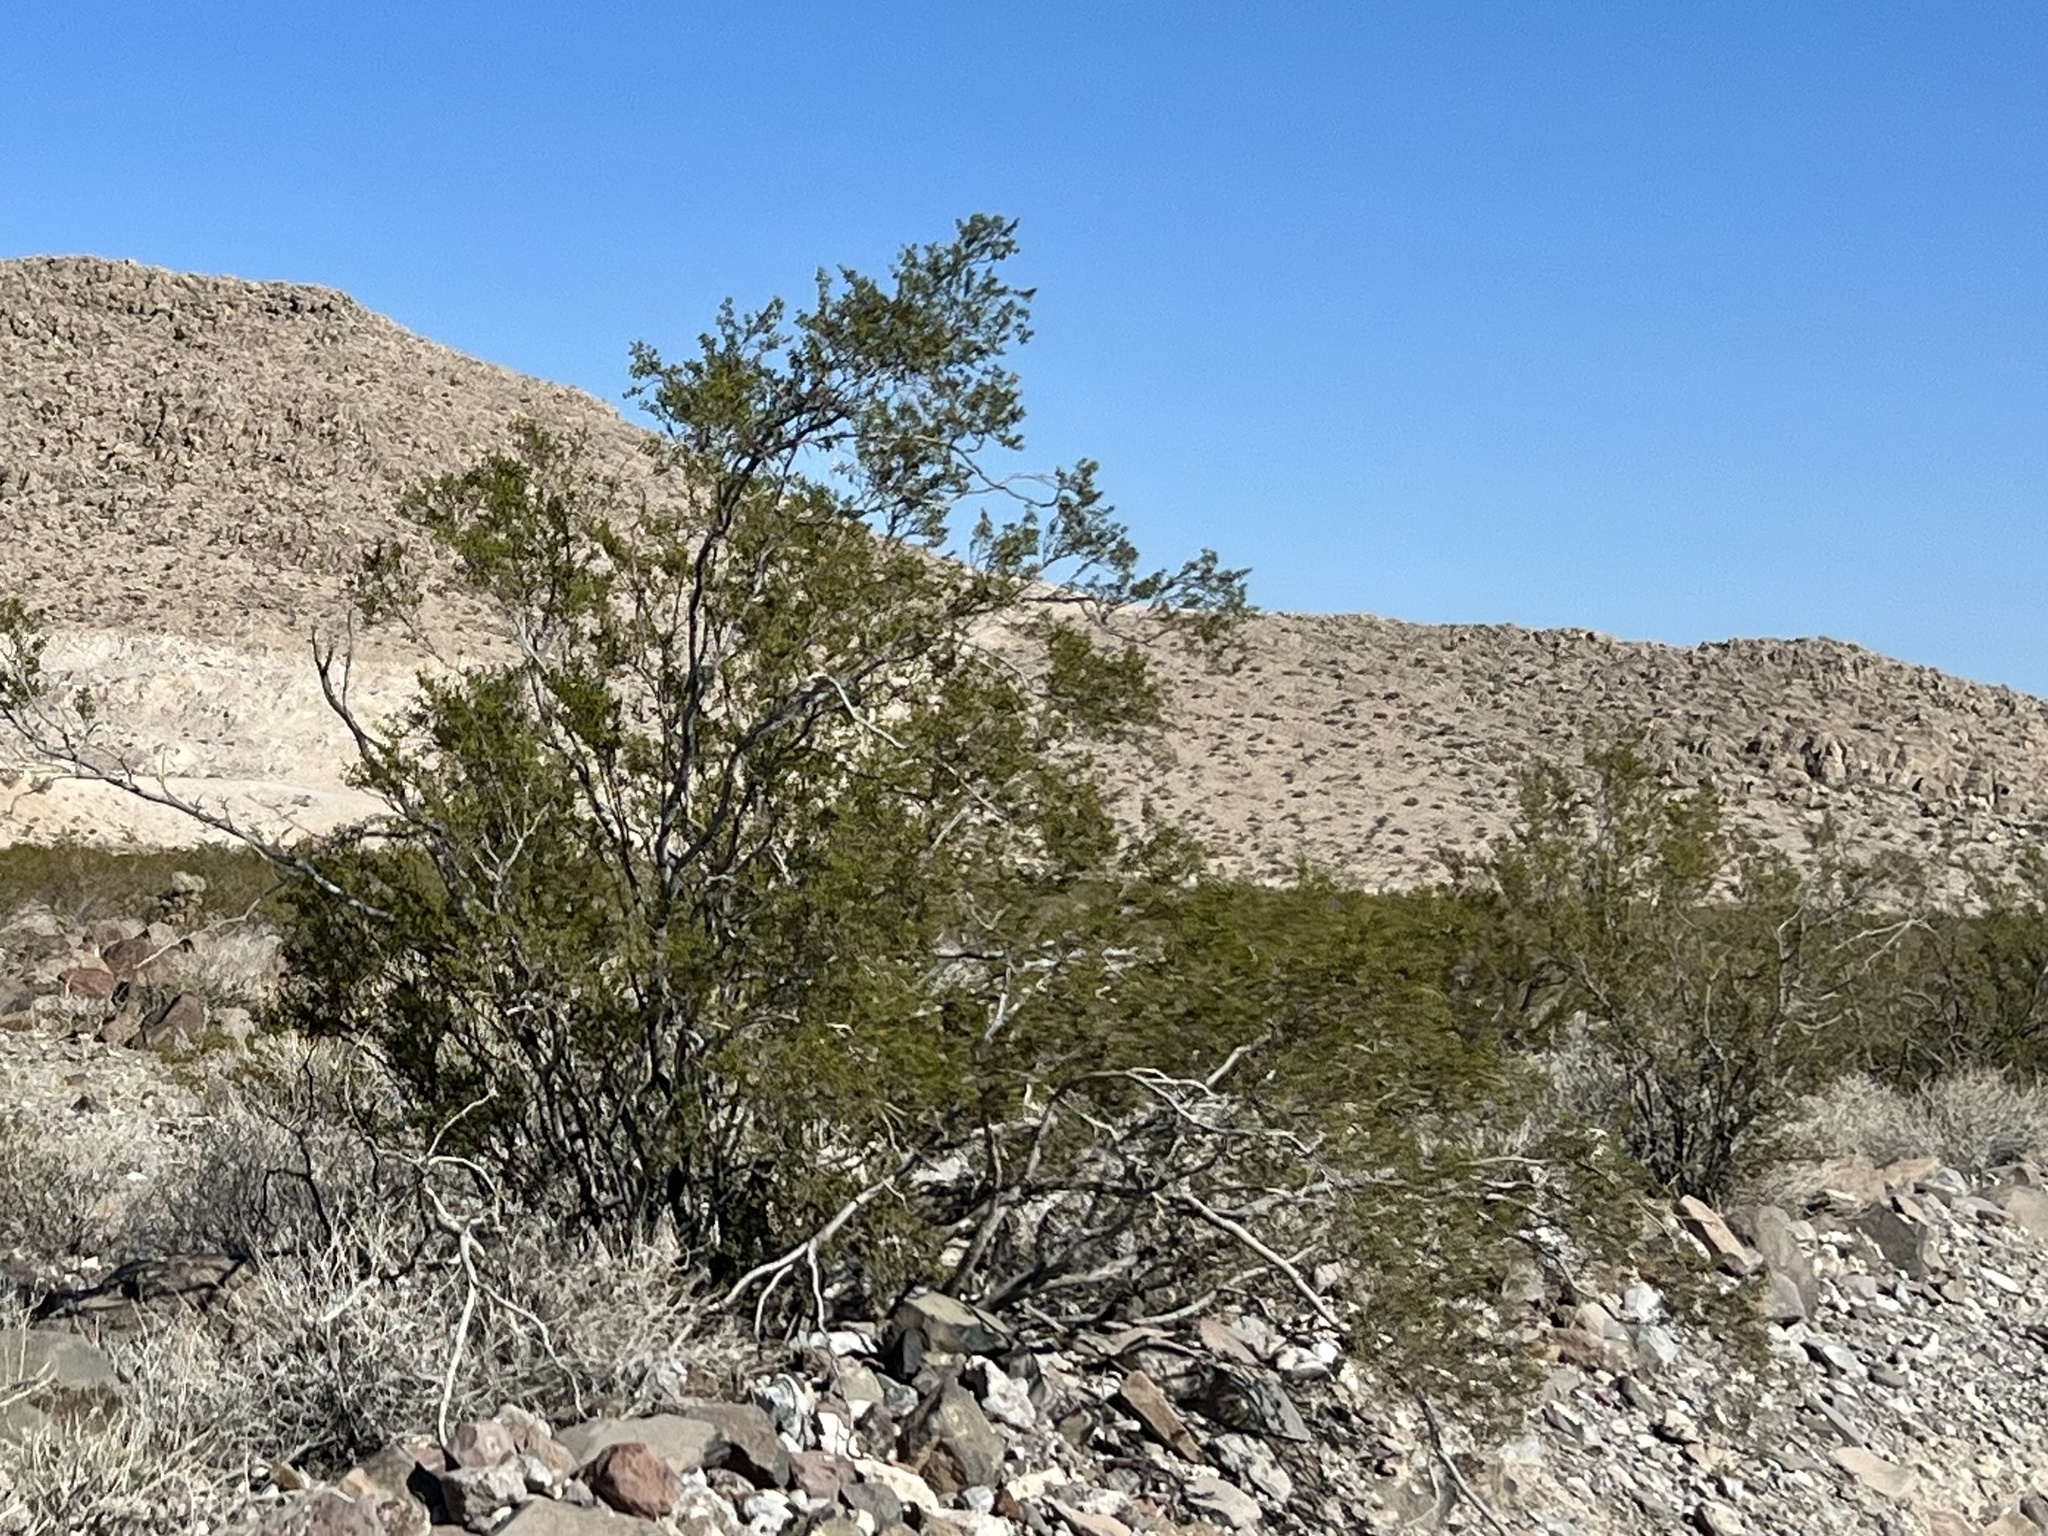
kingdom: Plantae
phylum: Tracheophyta
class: Magnoliopsida
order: Zygophyllales
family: Zygophyllaceae
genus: Larrea
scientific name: Larrea tridentata
